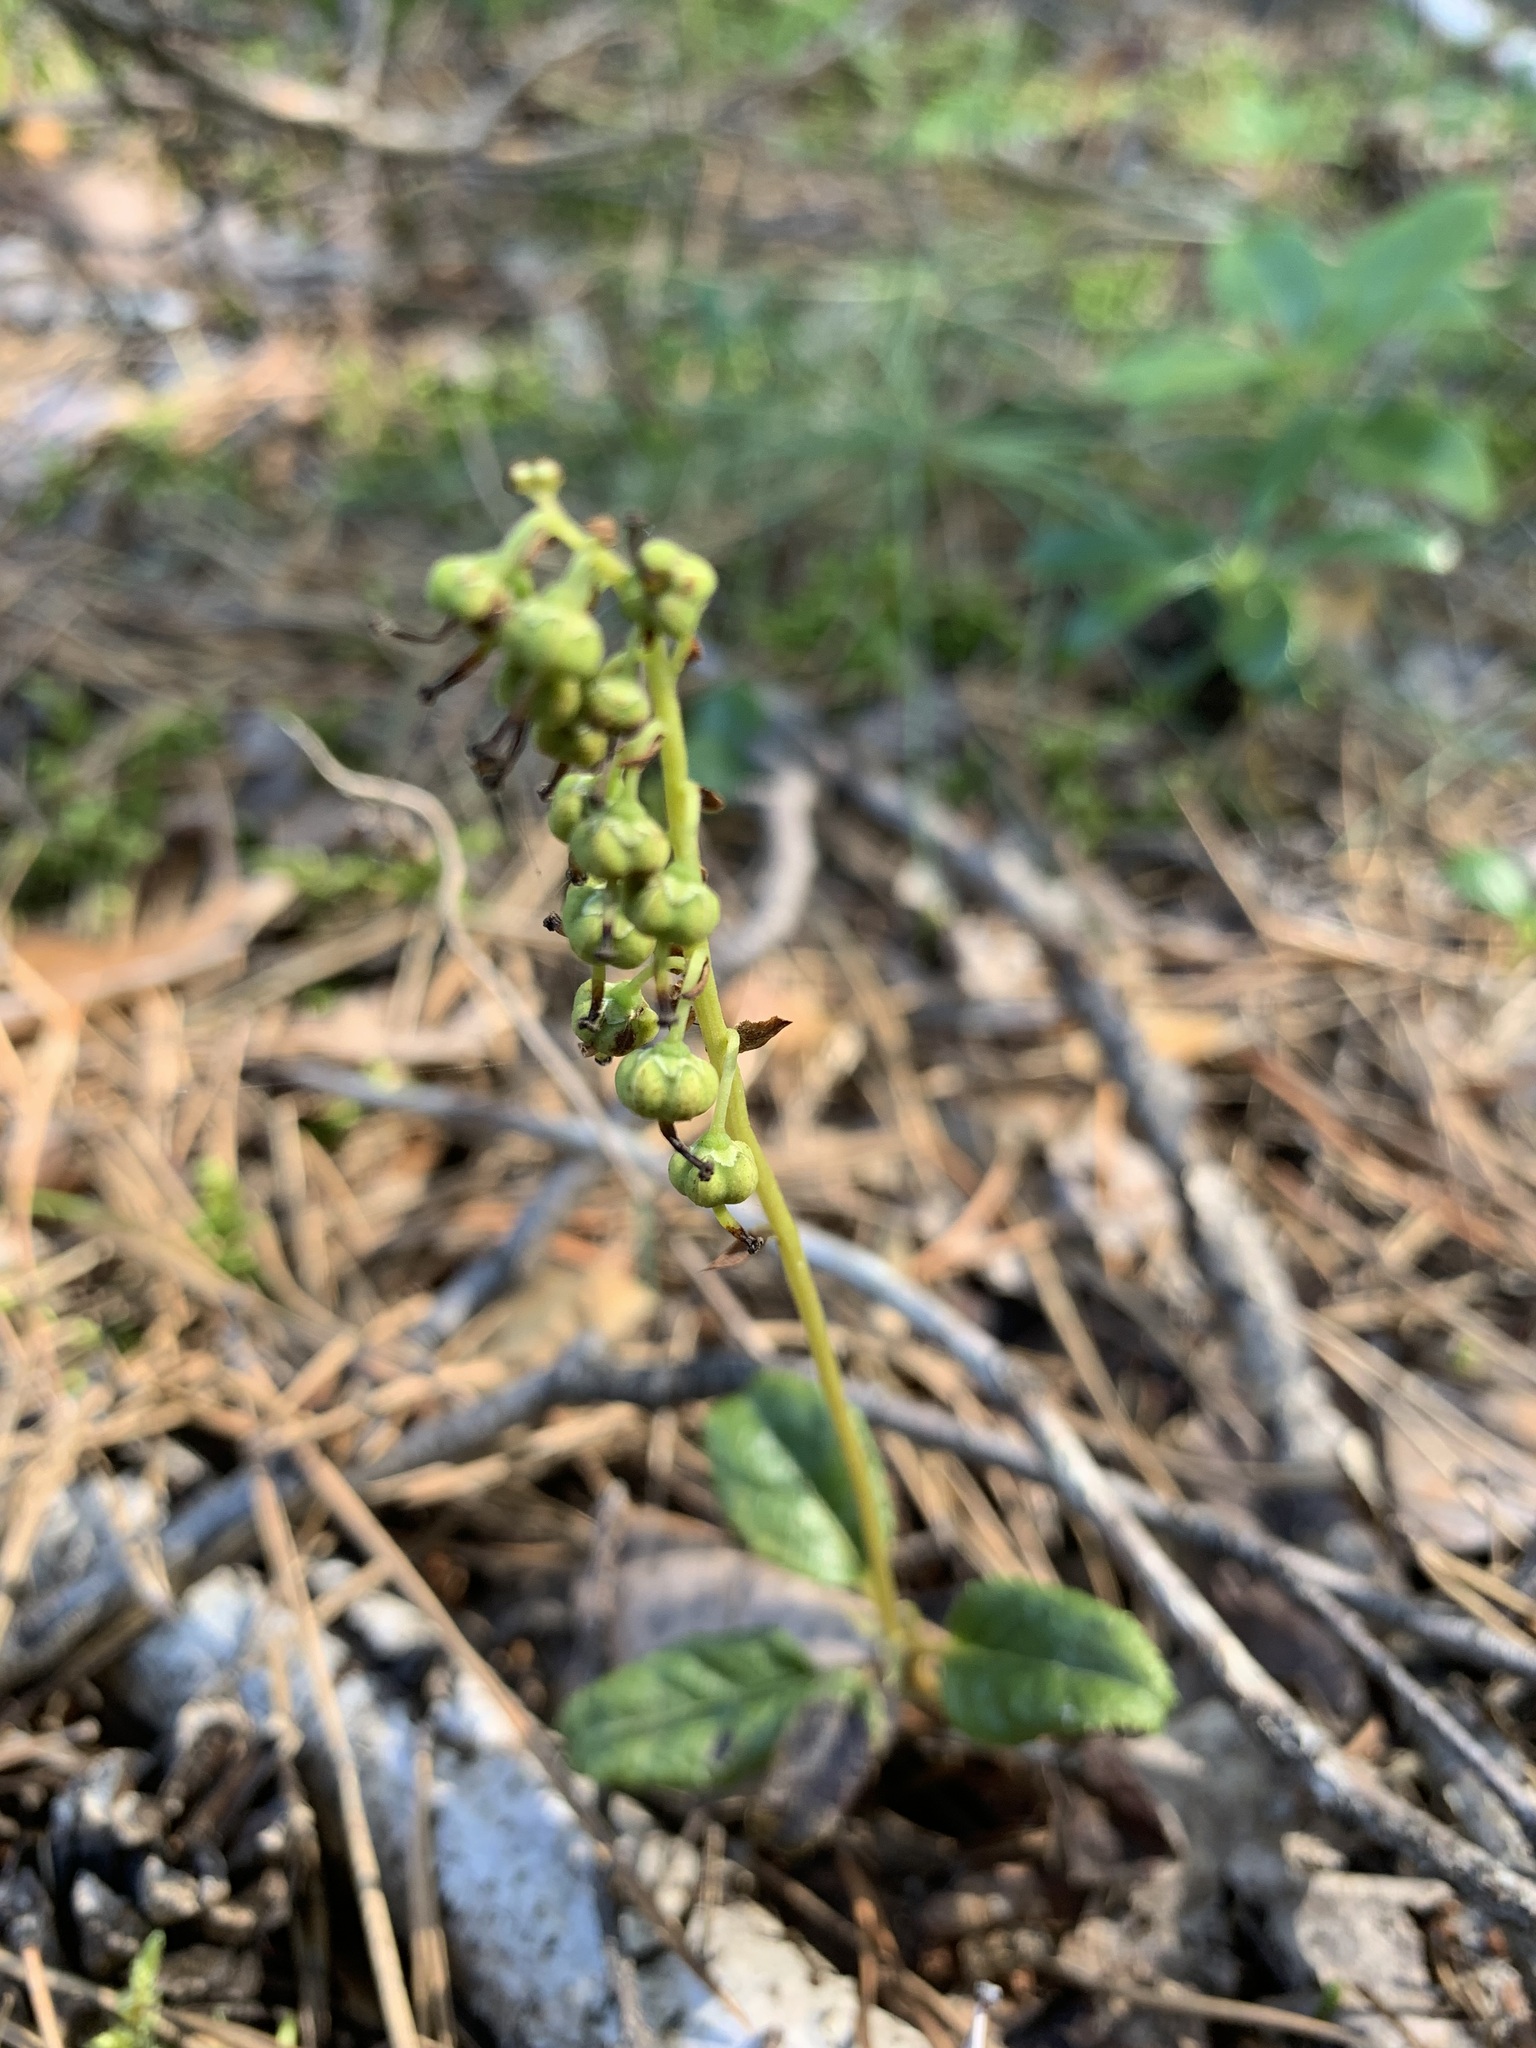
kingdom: Plantae
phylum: Tracheophyta
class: Magnoliopsida
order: Ericales
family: Ericaceae
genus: Orthilia
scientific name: Orthilia secunda
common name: One-sided orthilia
